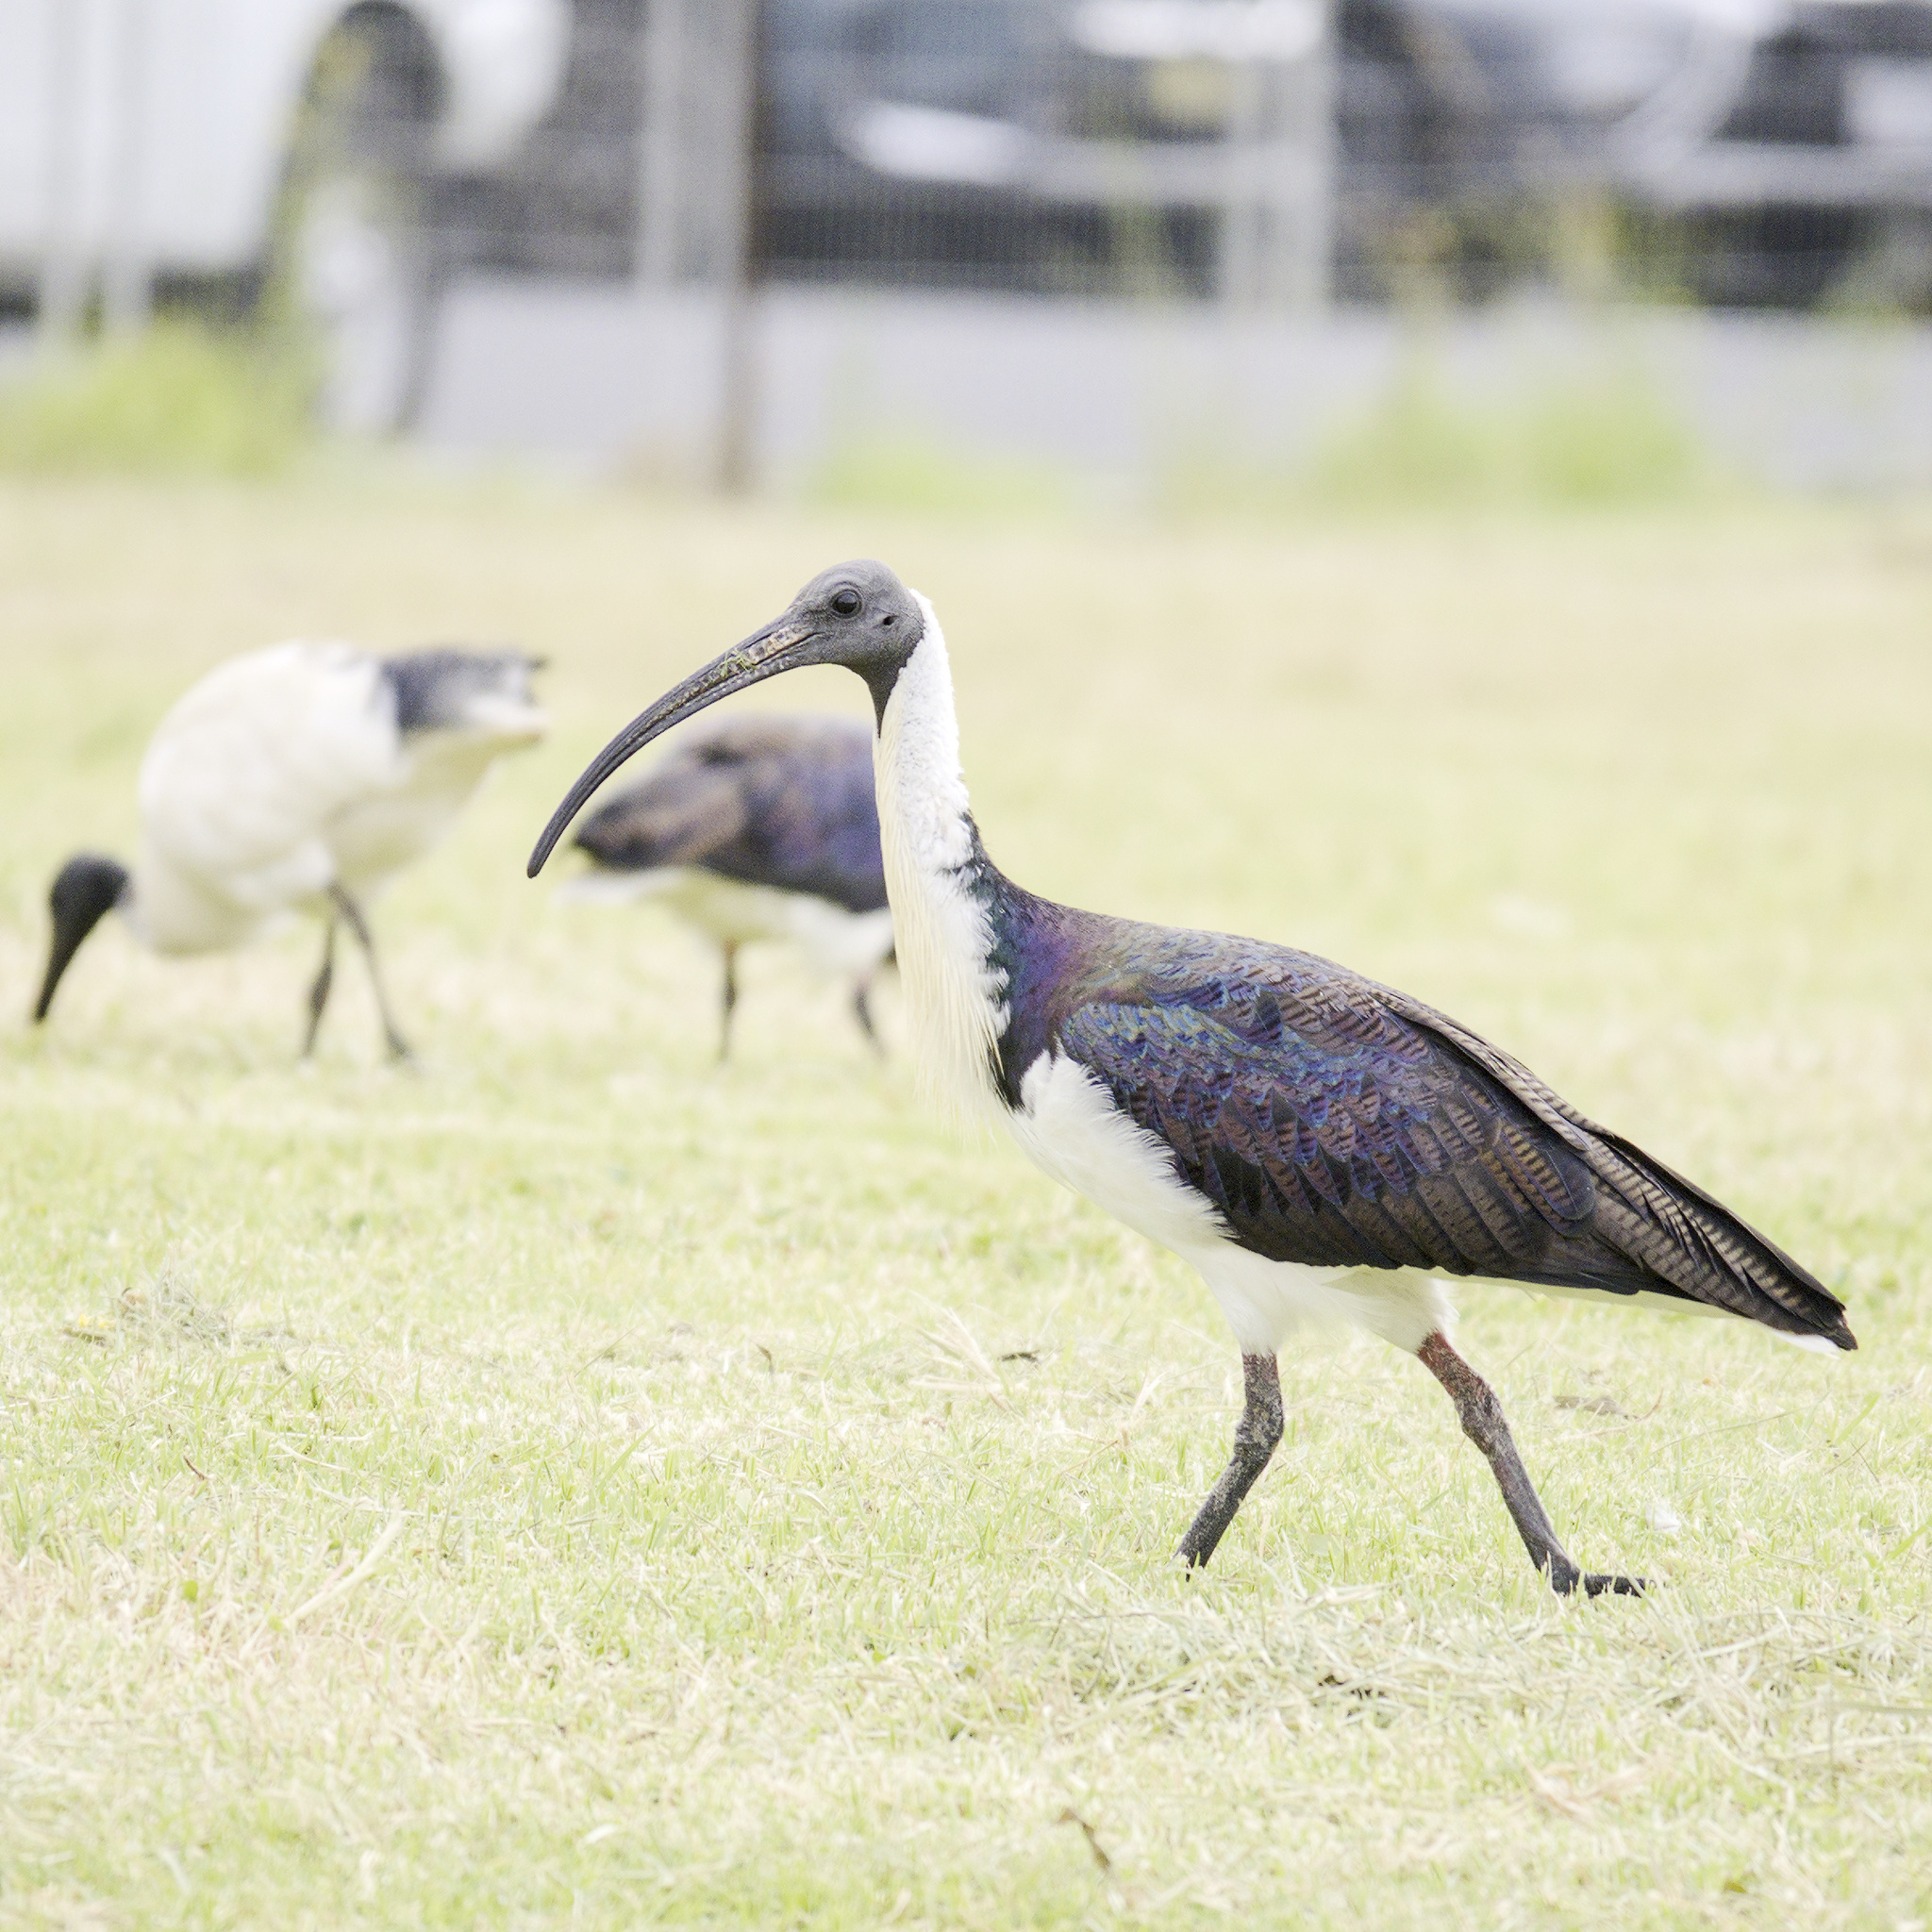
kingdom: Animalia
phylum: Chordata
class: Aves
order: Pelecaniformes
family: Threskiornithidae
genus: Threskiornis
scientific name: Threskiornis spinicollis
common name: Straw-necked ibis
